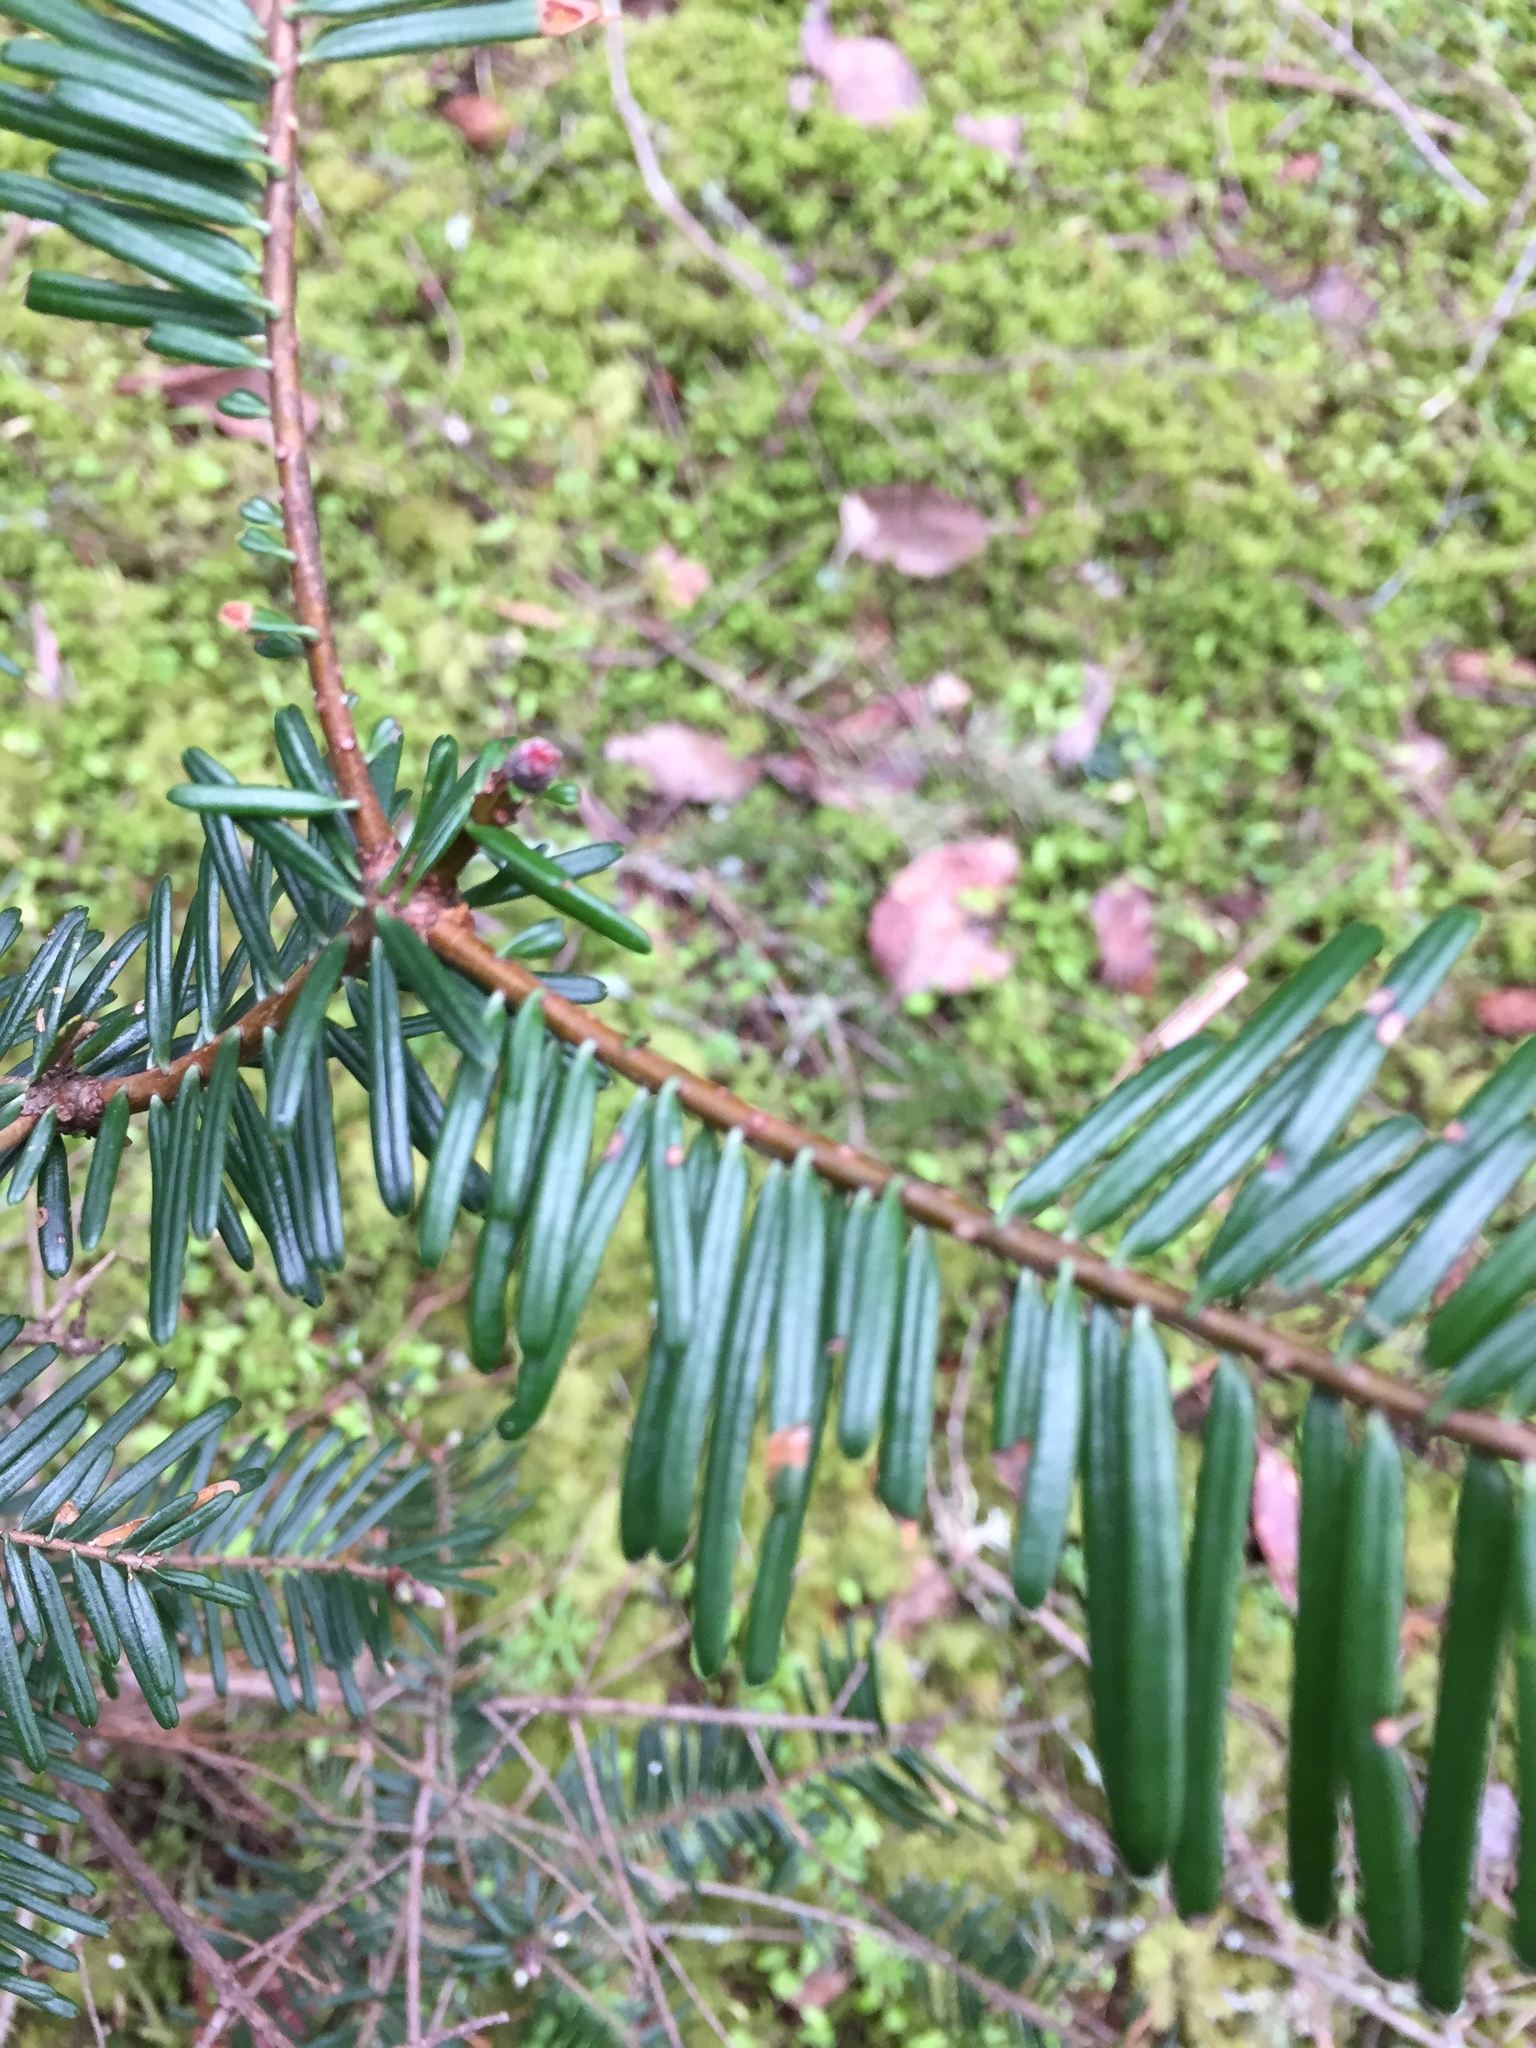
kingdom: Plantae
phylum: Tracheophyta
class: Pinopsida
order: Pinales
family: Pinaceae
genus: Abies
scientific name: Abies grandis
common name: Giant fir
